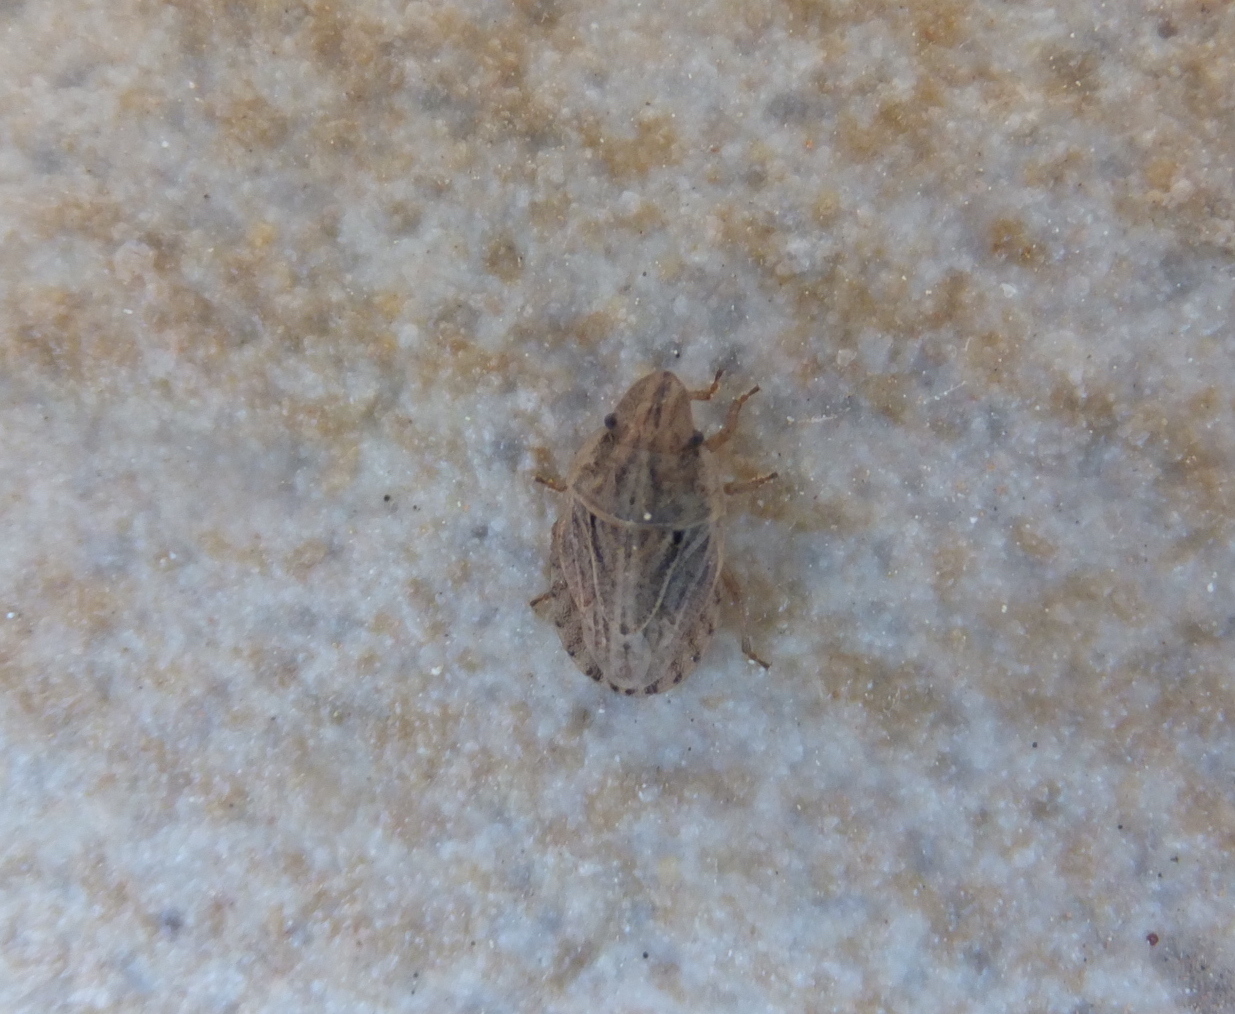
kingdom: Animalia
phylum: Arthropoda
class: Insecta
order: Hemiptera
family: Pentatomidae
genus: Sciocoris
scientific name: Sciocoris sulcatus
